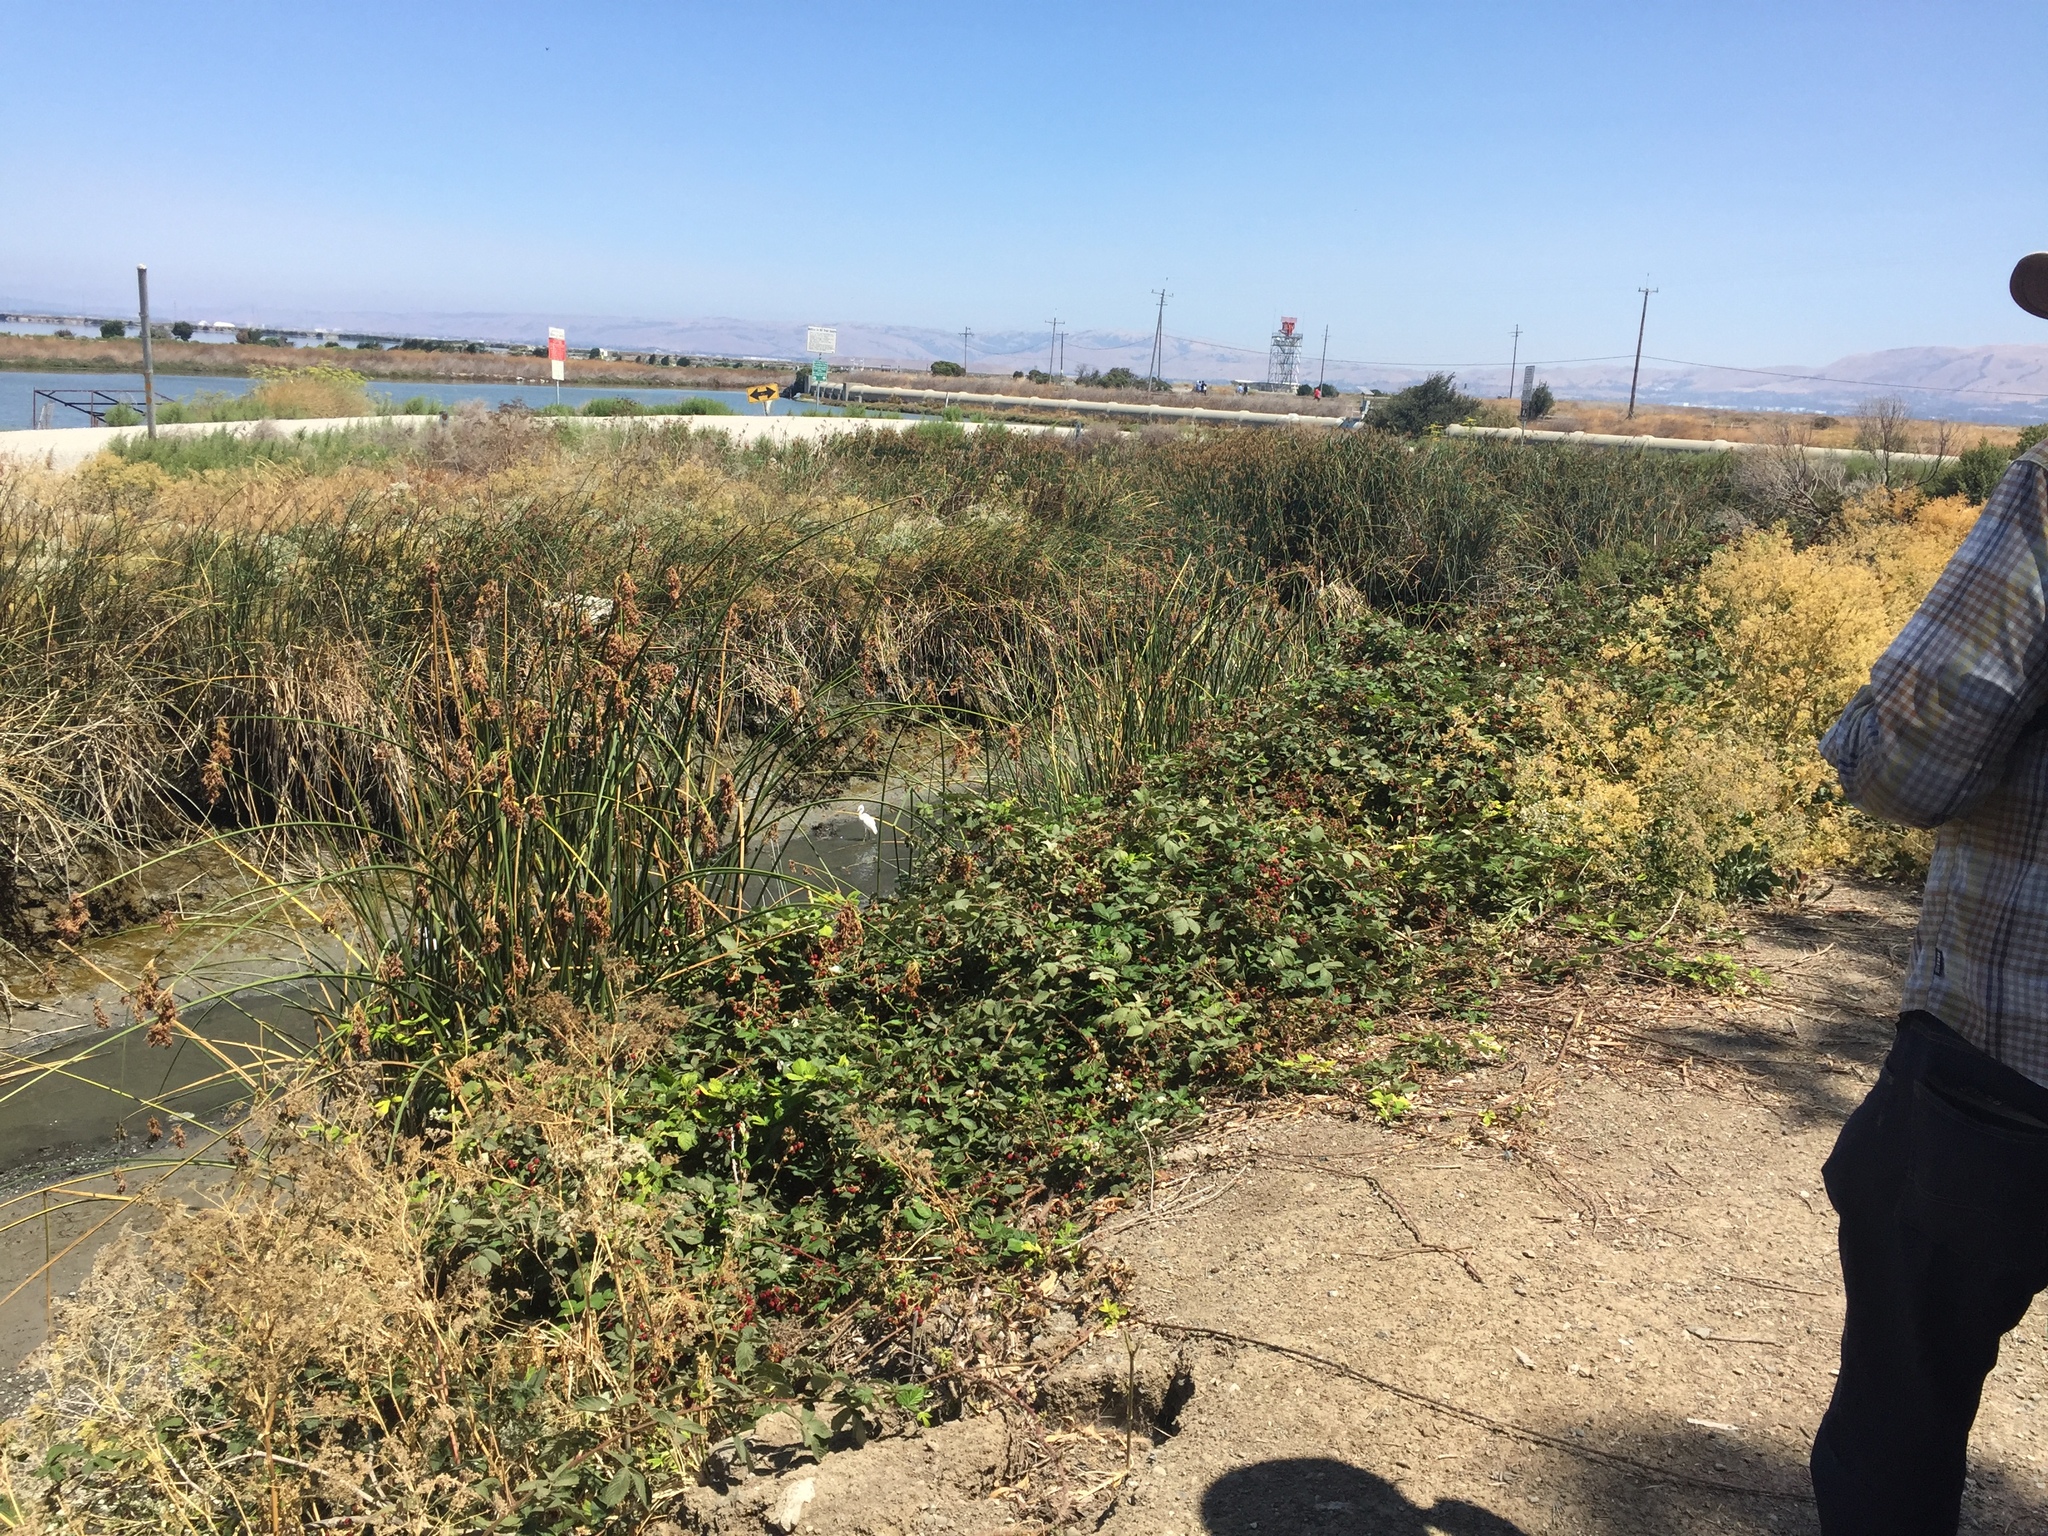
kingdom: Animalia
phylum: Chordata
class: Aves
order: Pelecaniformes
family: Ardeidae
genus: Egretta
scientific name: Egretta thula
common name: Snowy egret
